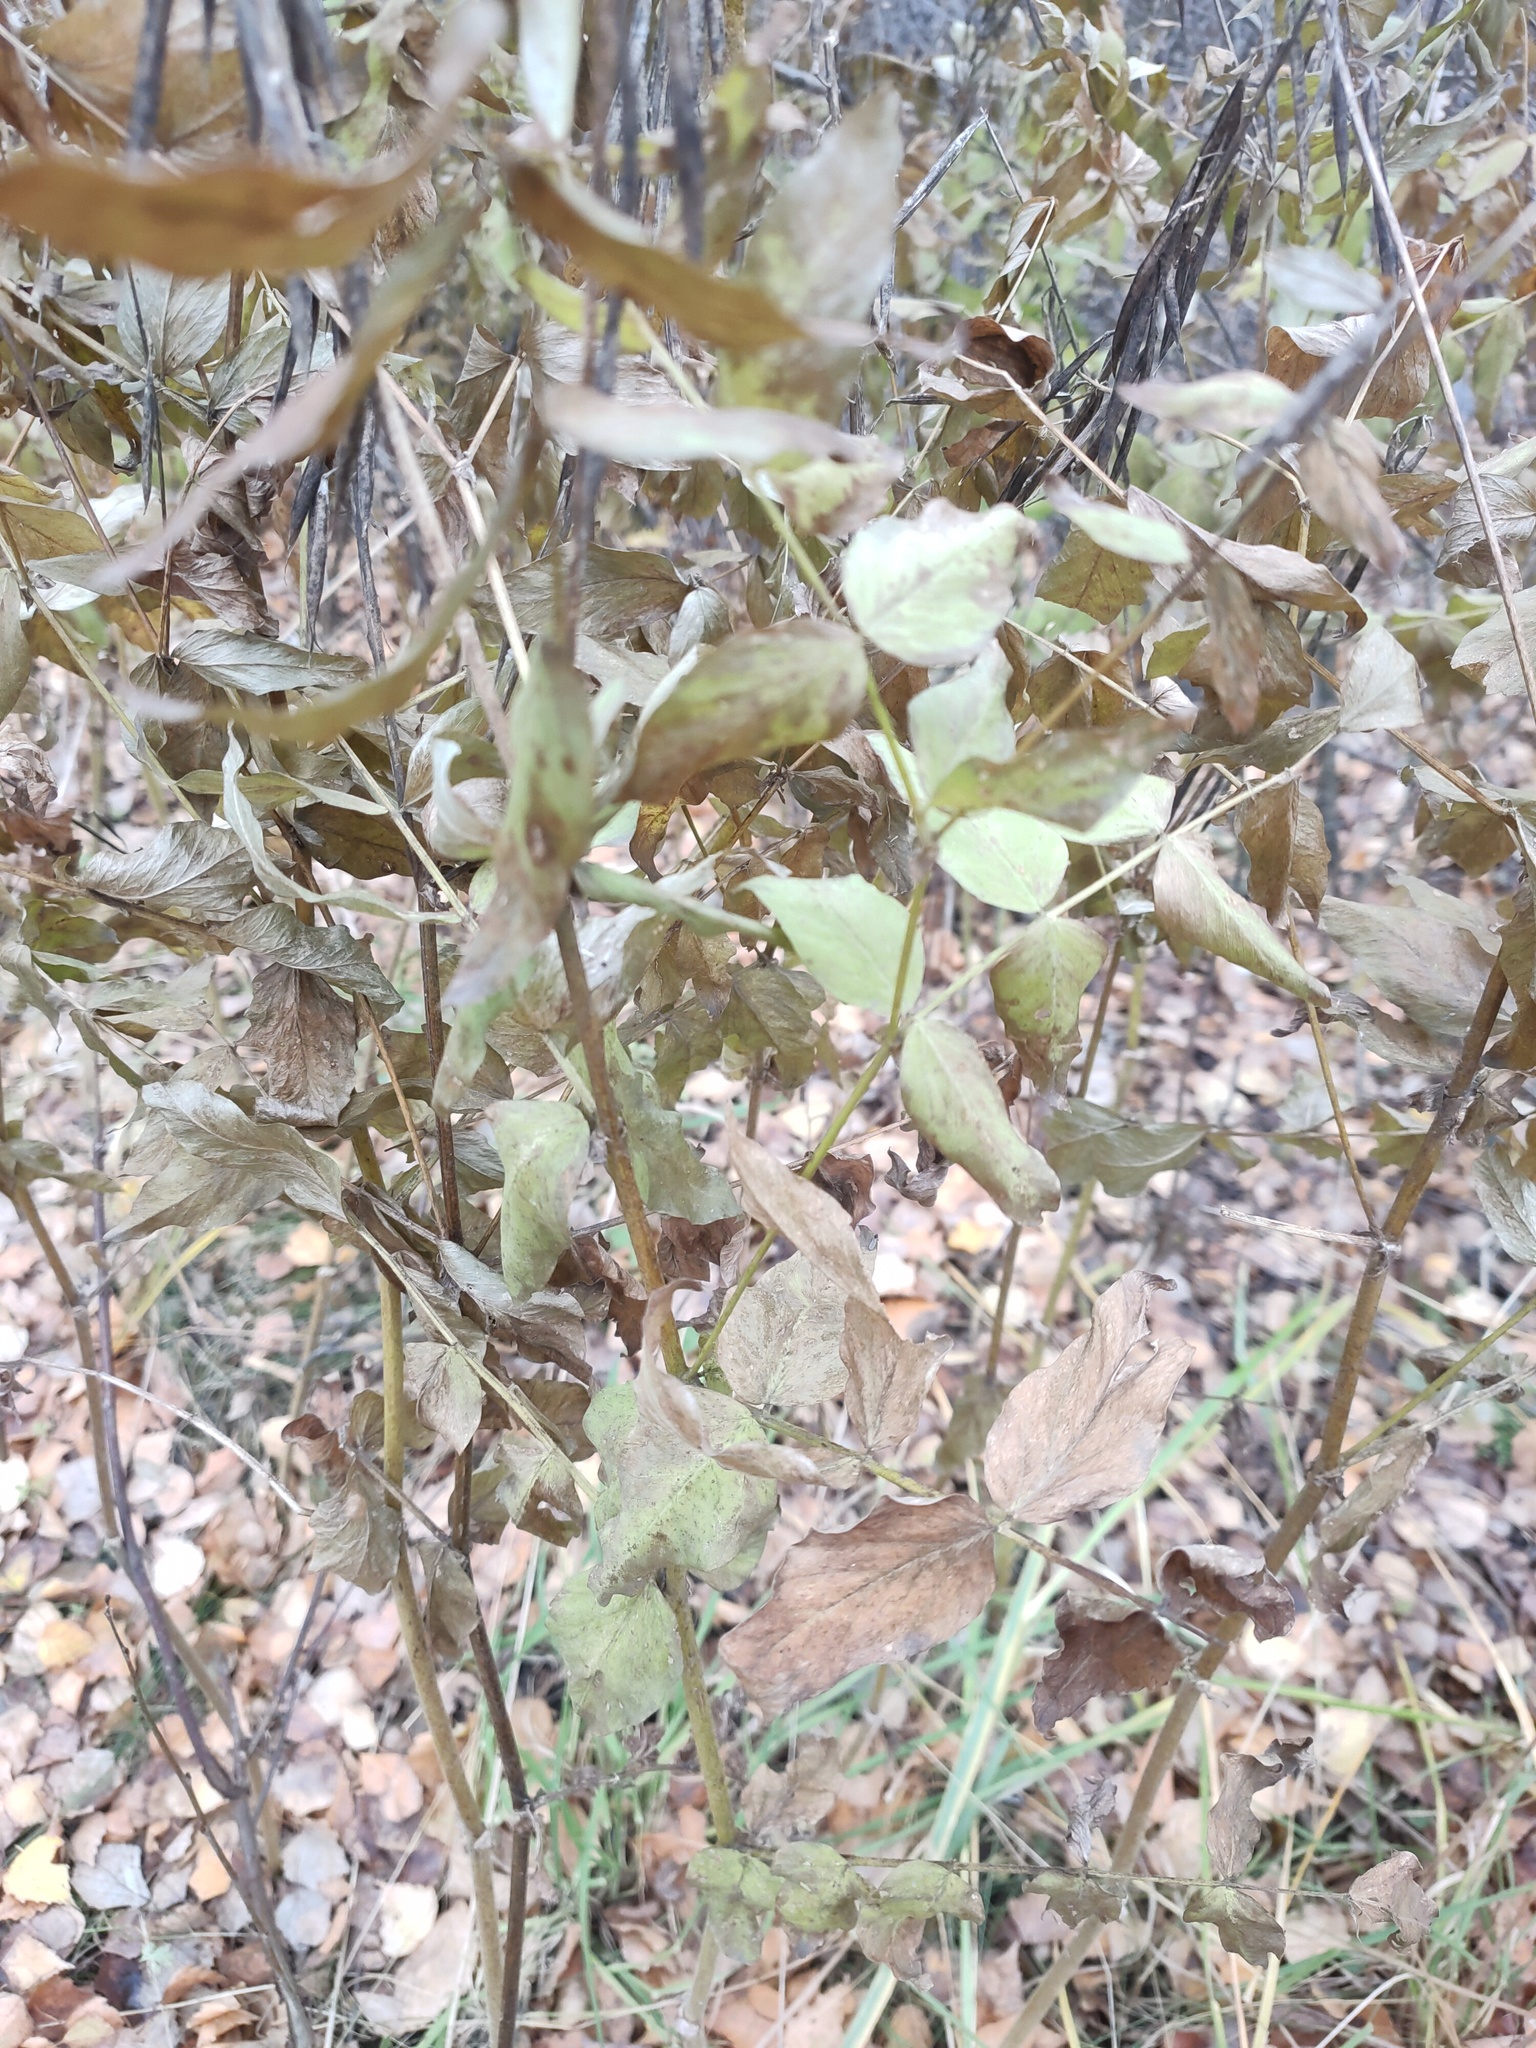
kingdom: Plantae
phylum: Tracheophyta
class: Magnoliopsida
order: Fabales
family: Fabaceae
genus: Galega
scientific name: Galega orientalis
